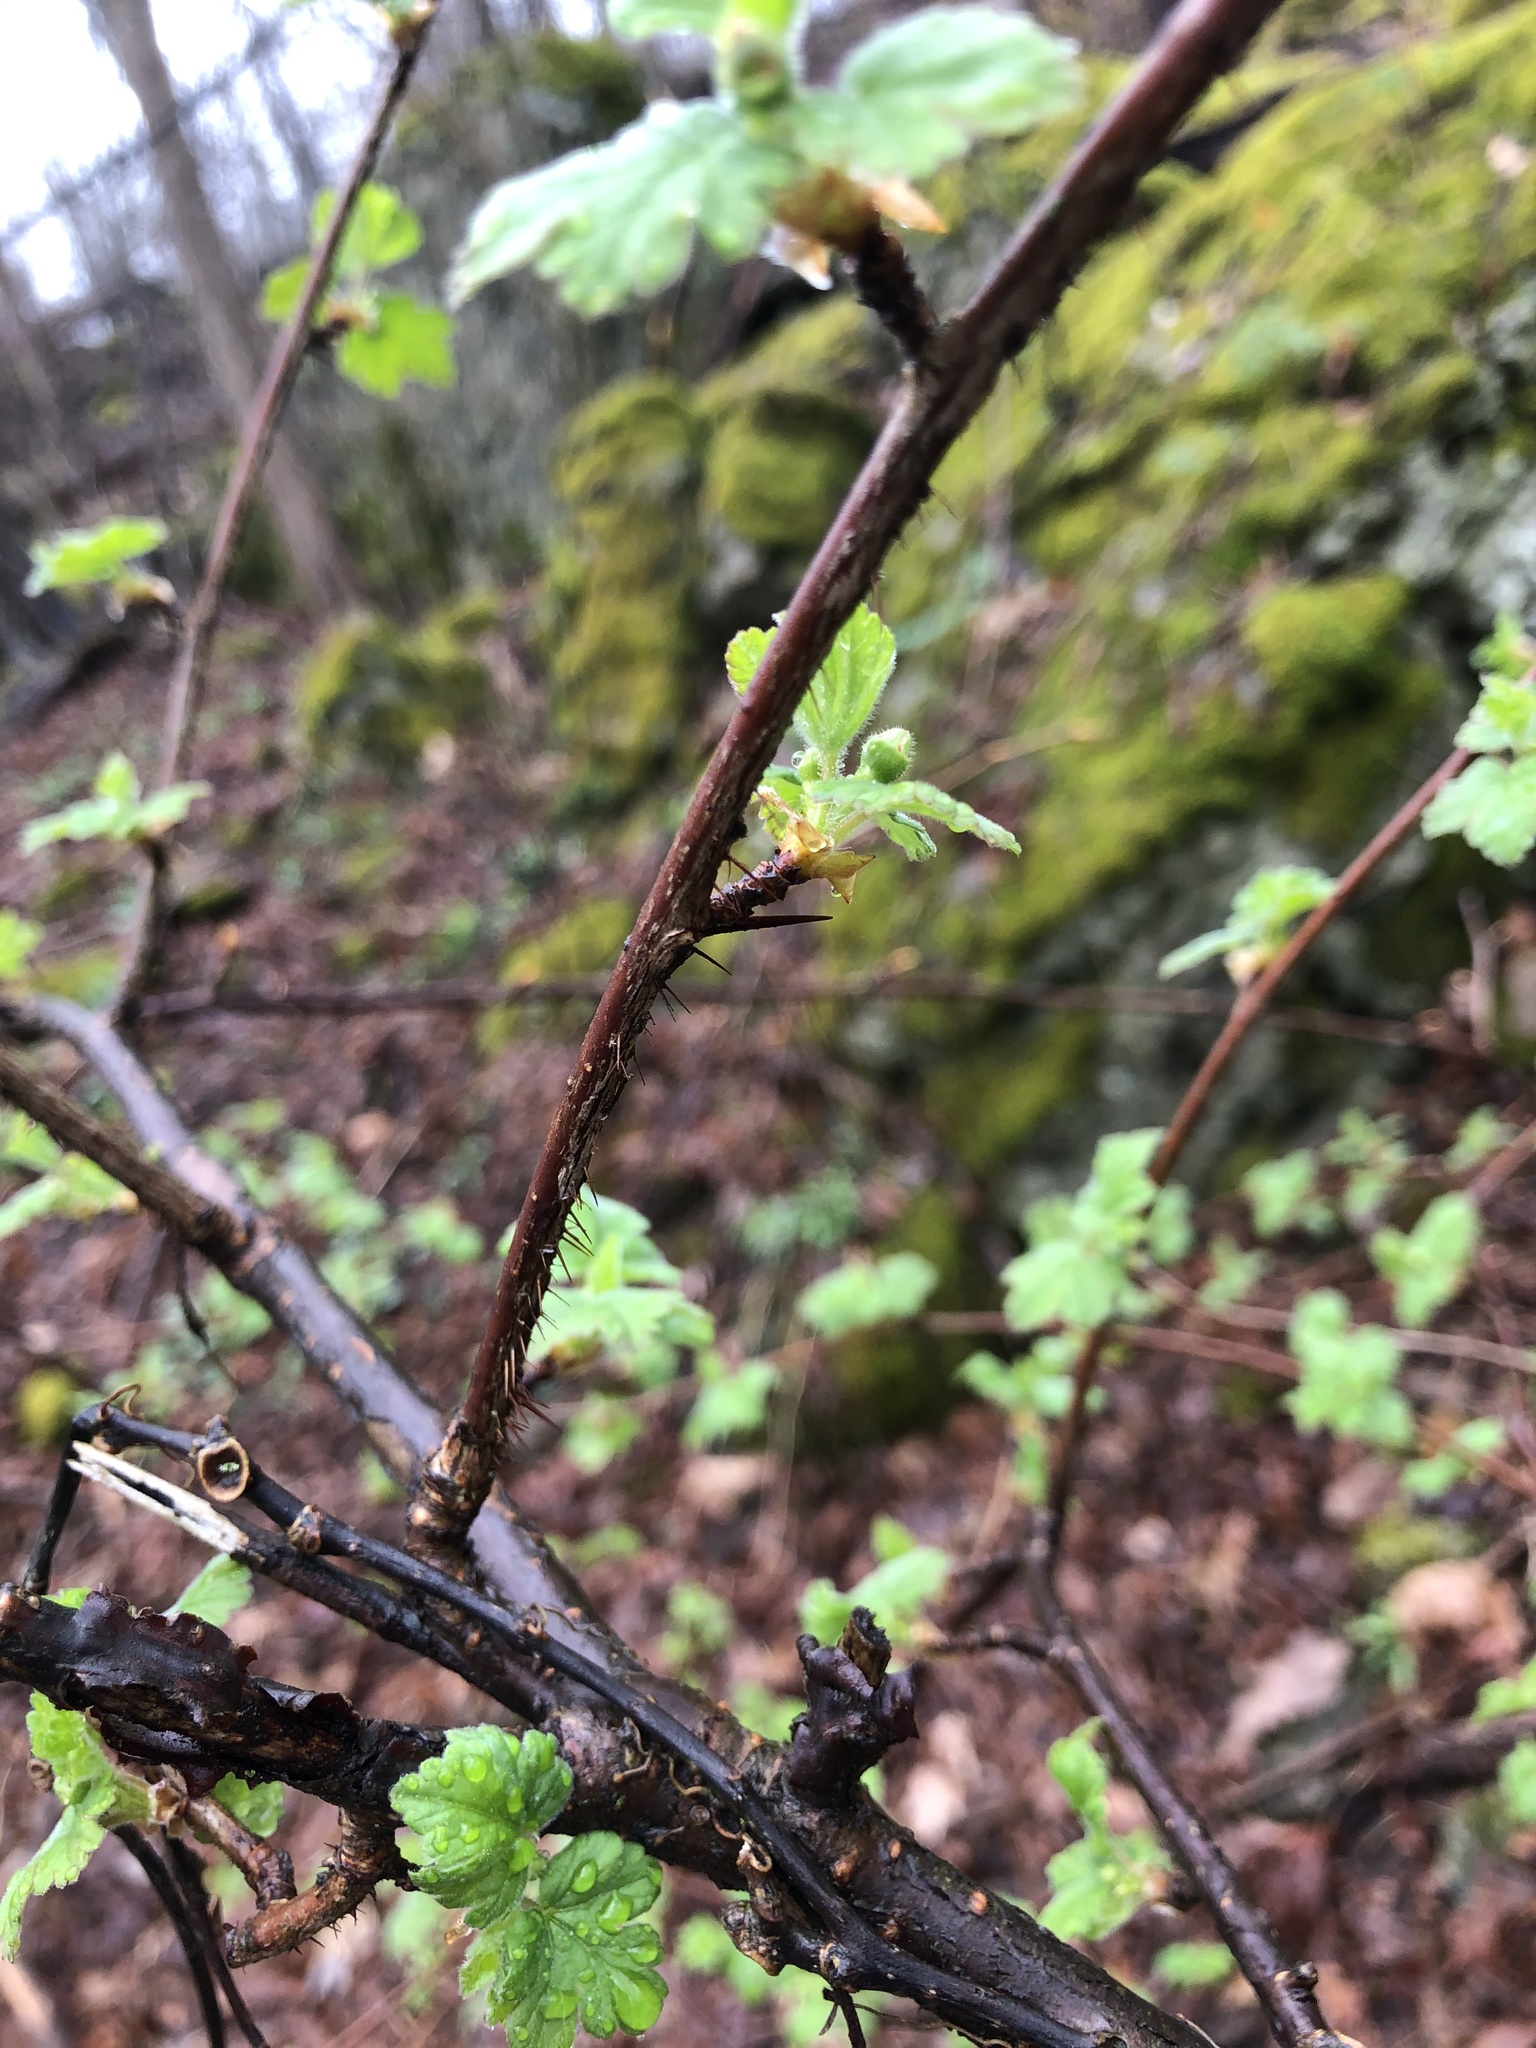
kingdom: Plantae
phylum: Tracheophyta
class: Magnoliopsida
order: Saxifragales
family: Grossulariaceae
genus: Ribes
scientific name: Ribes cynosbati
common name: American gooseberry
